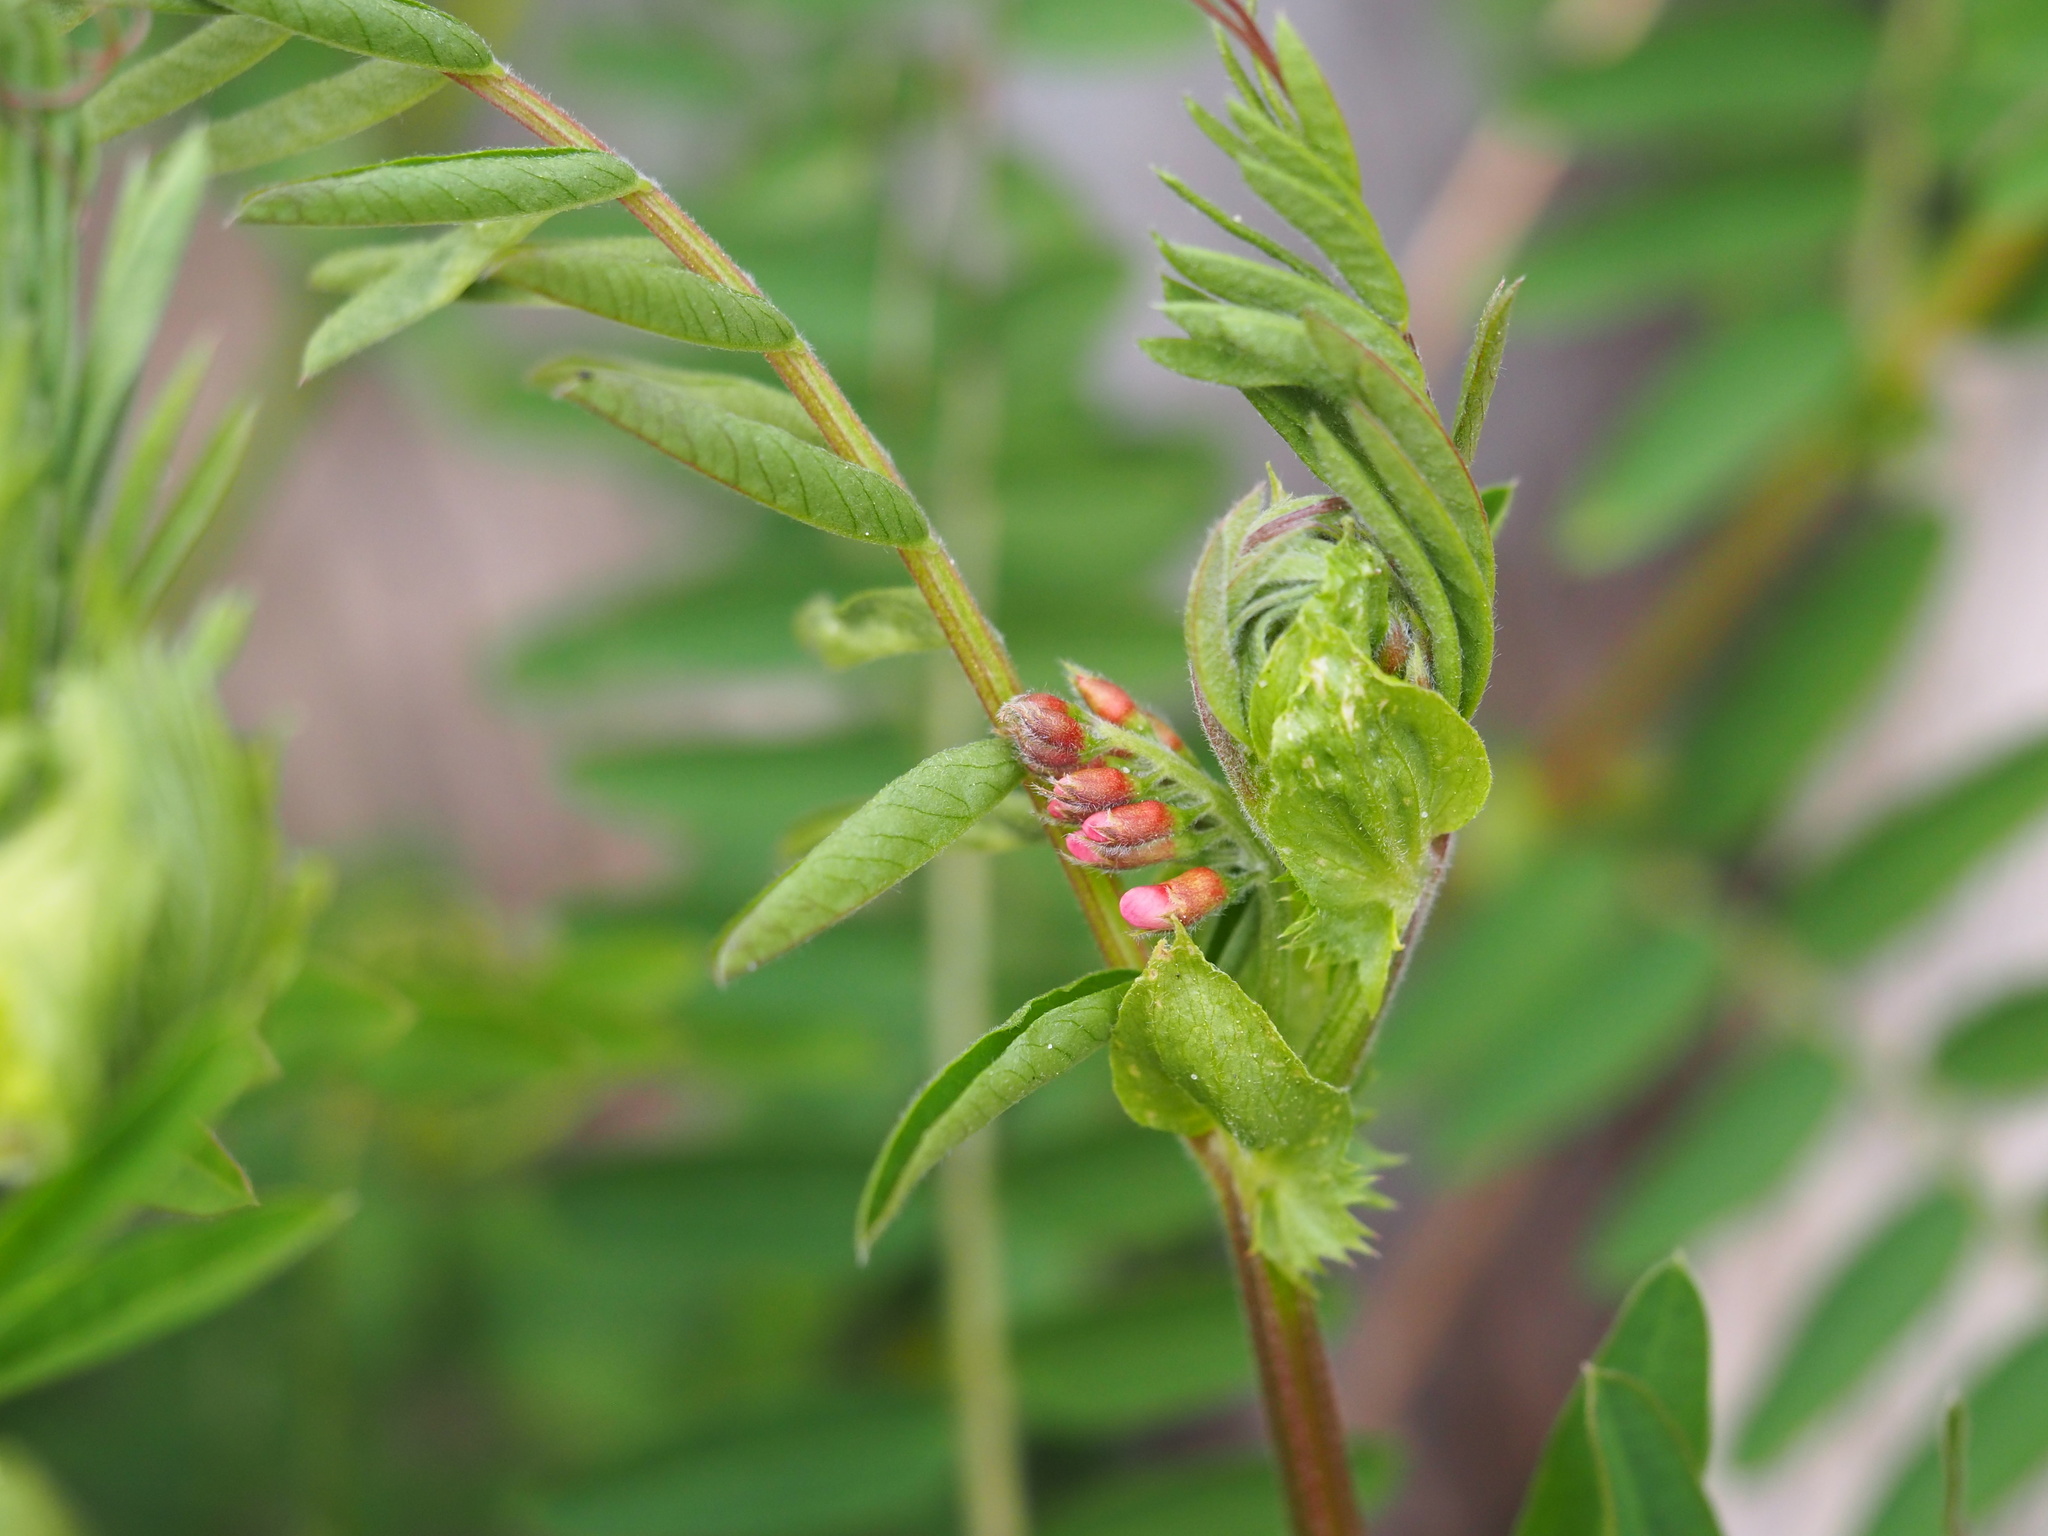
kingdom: Plantae
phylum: Tracheophyta
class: Magnoliopsida
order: Fabales
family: Fabaceae
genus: Vicia
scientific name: Vicia
